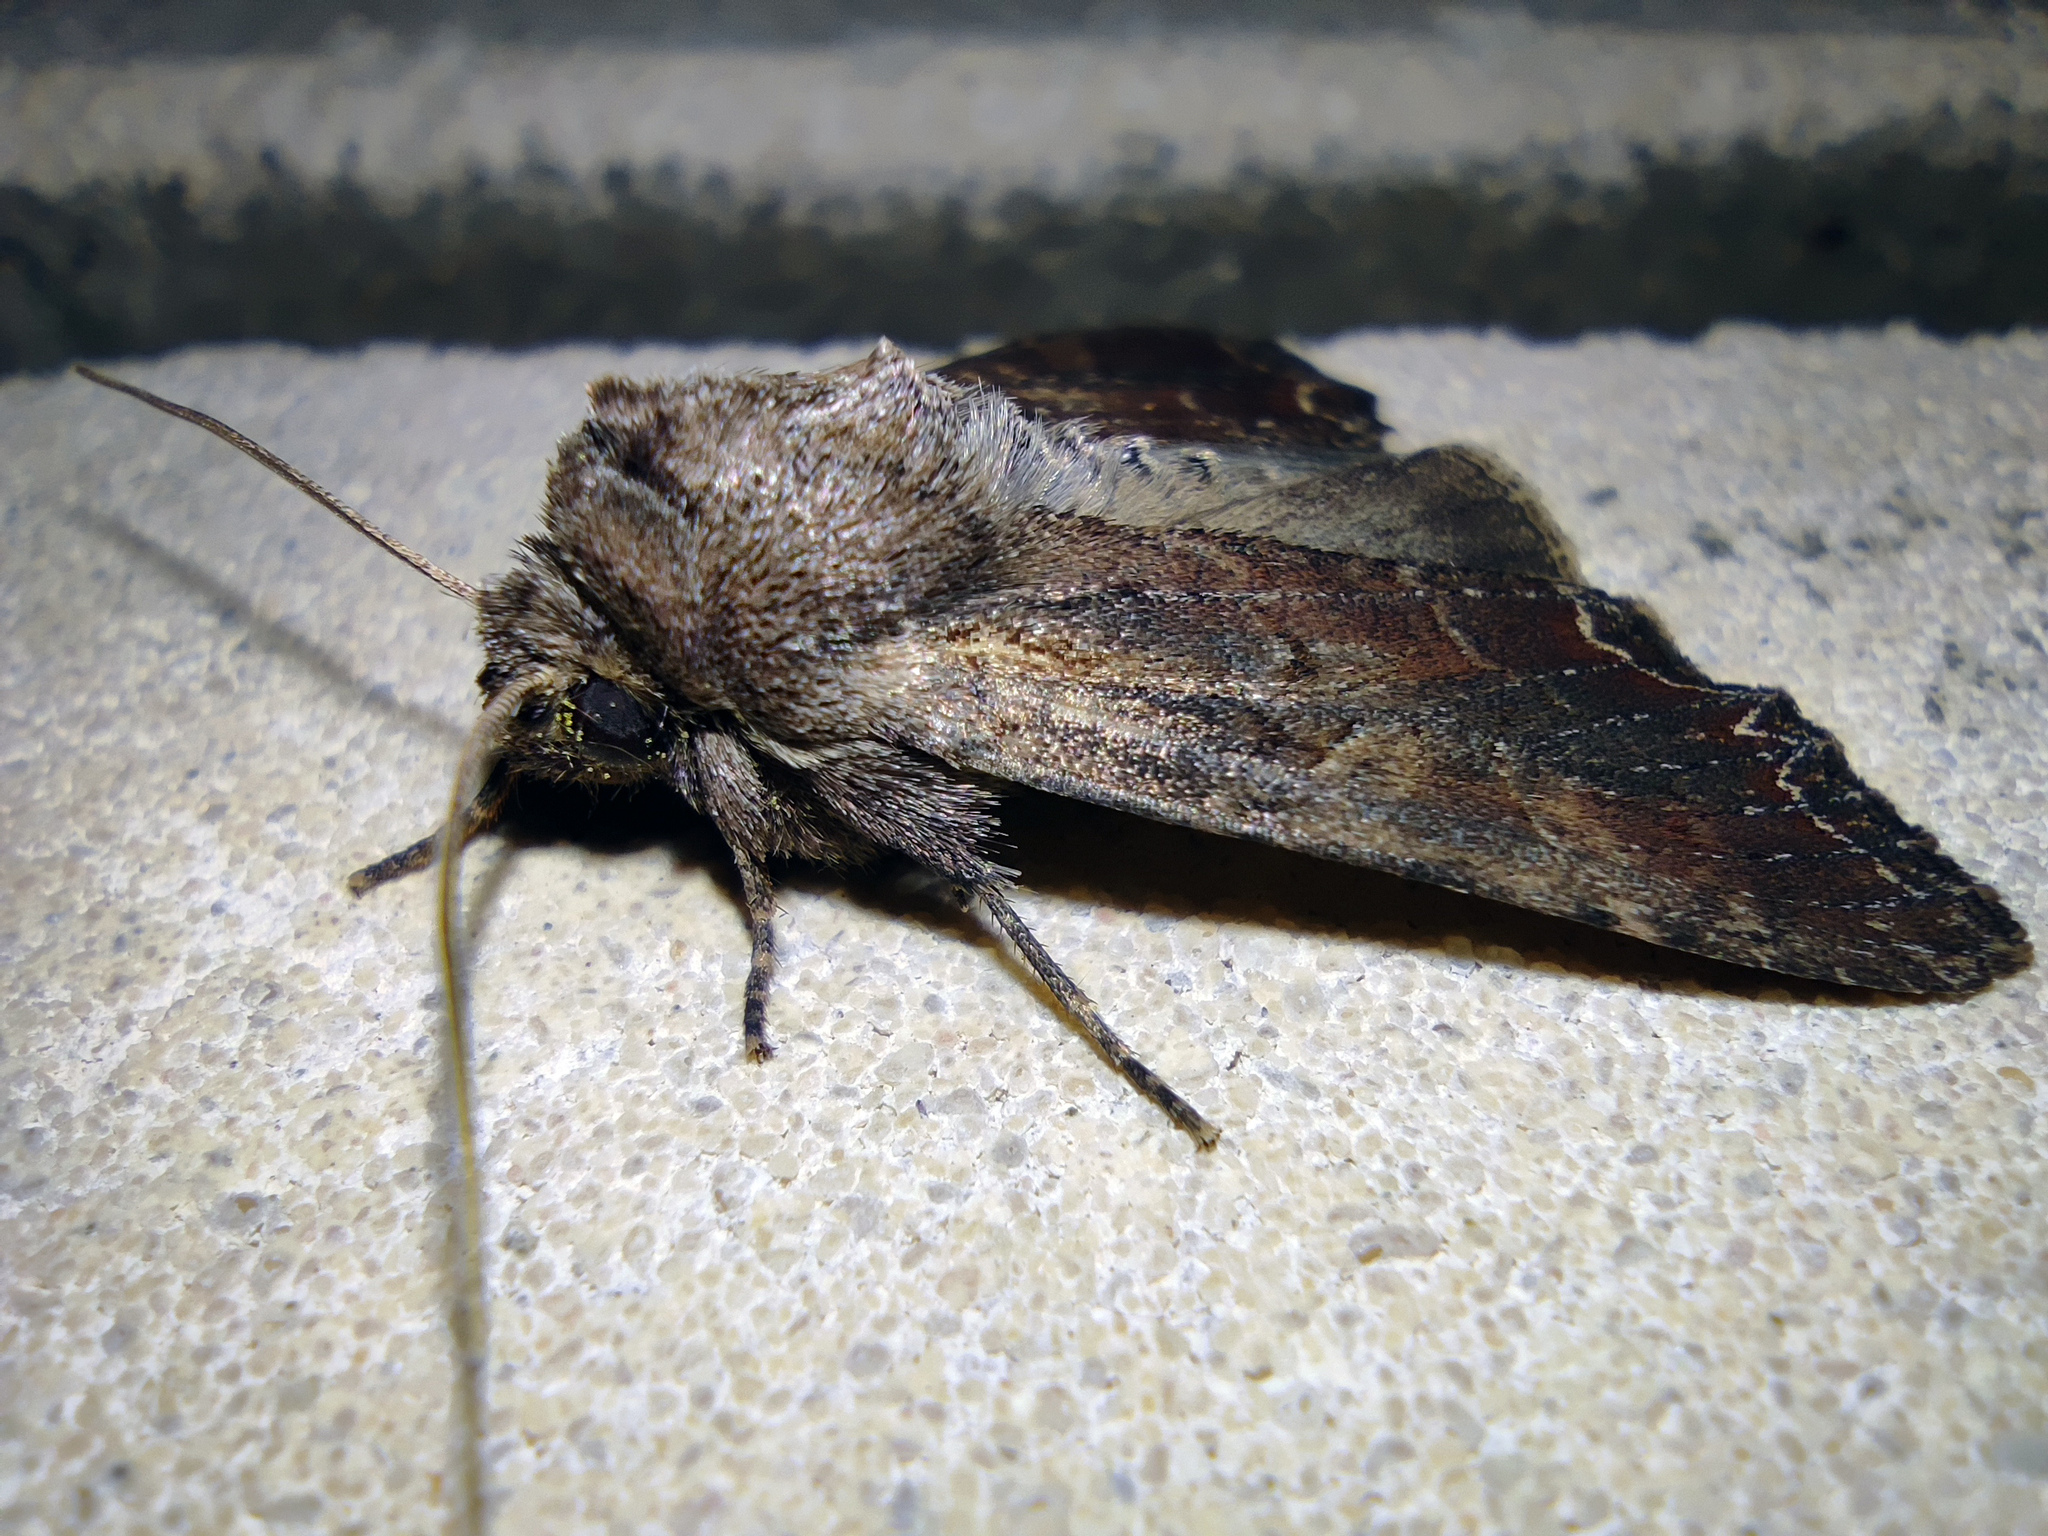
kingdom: Animalia
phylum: Arthropoda
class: Insecta
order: Lepidoptera
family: Noctuidae
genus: Lacanobia
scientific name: Lacanobia suasa
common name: Dog's tooth
